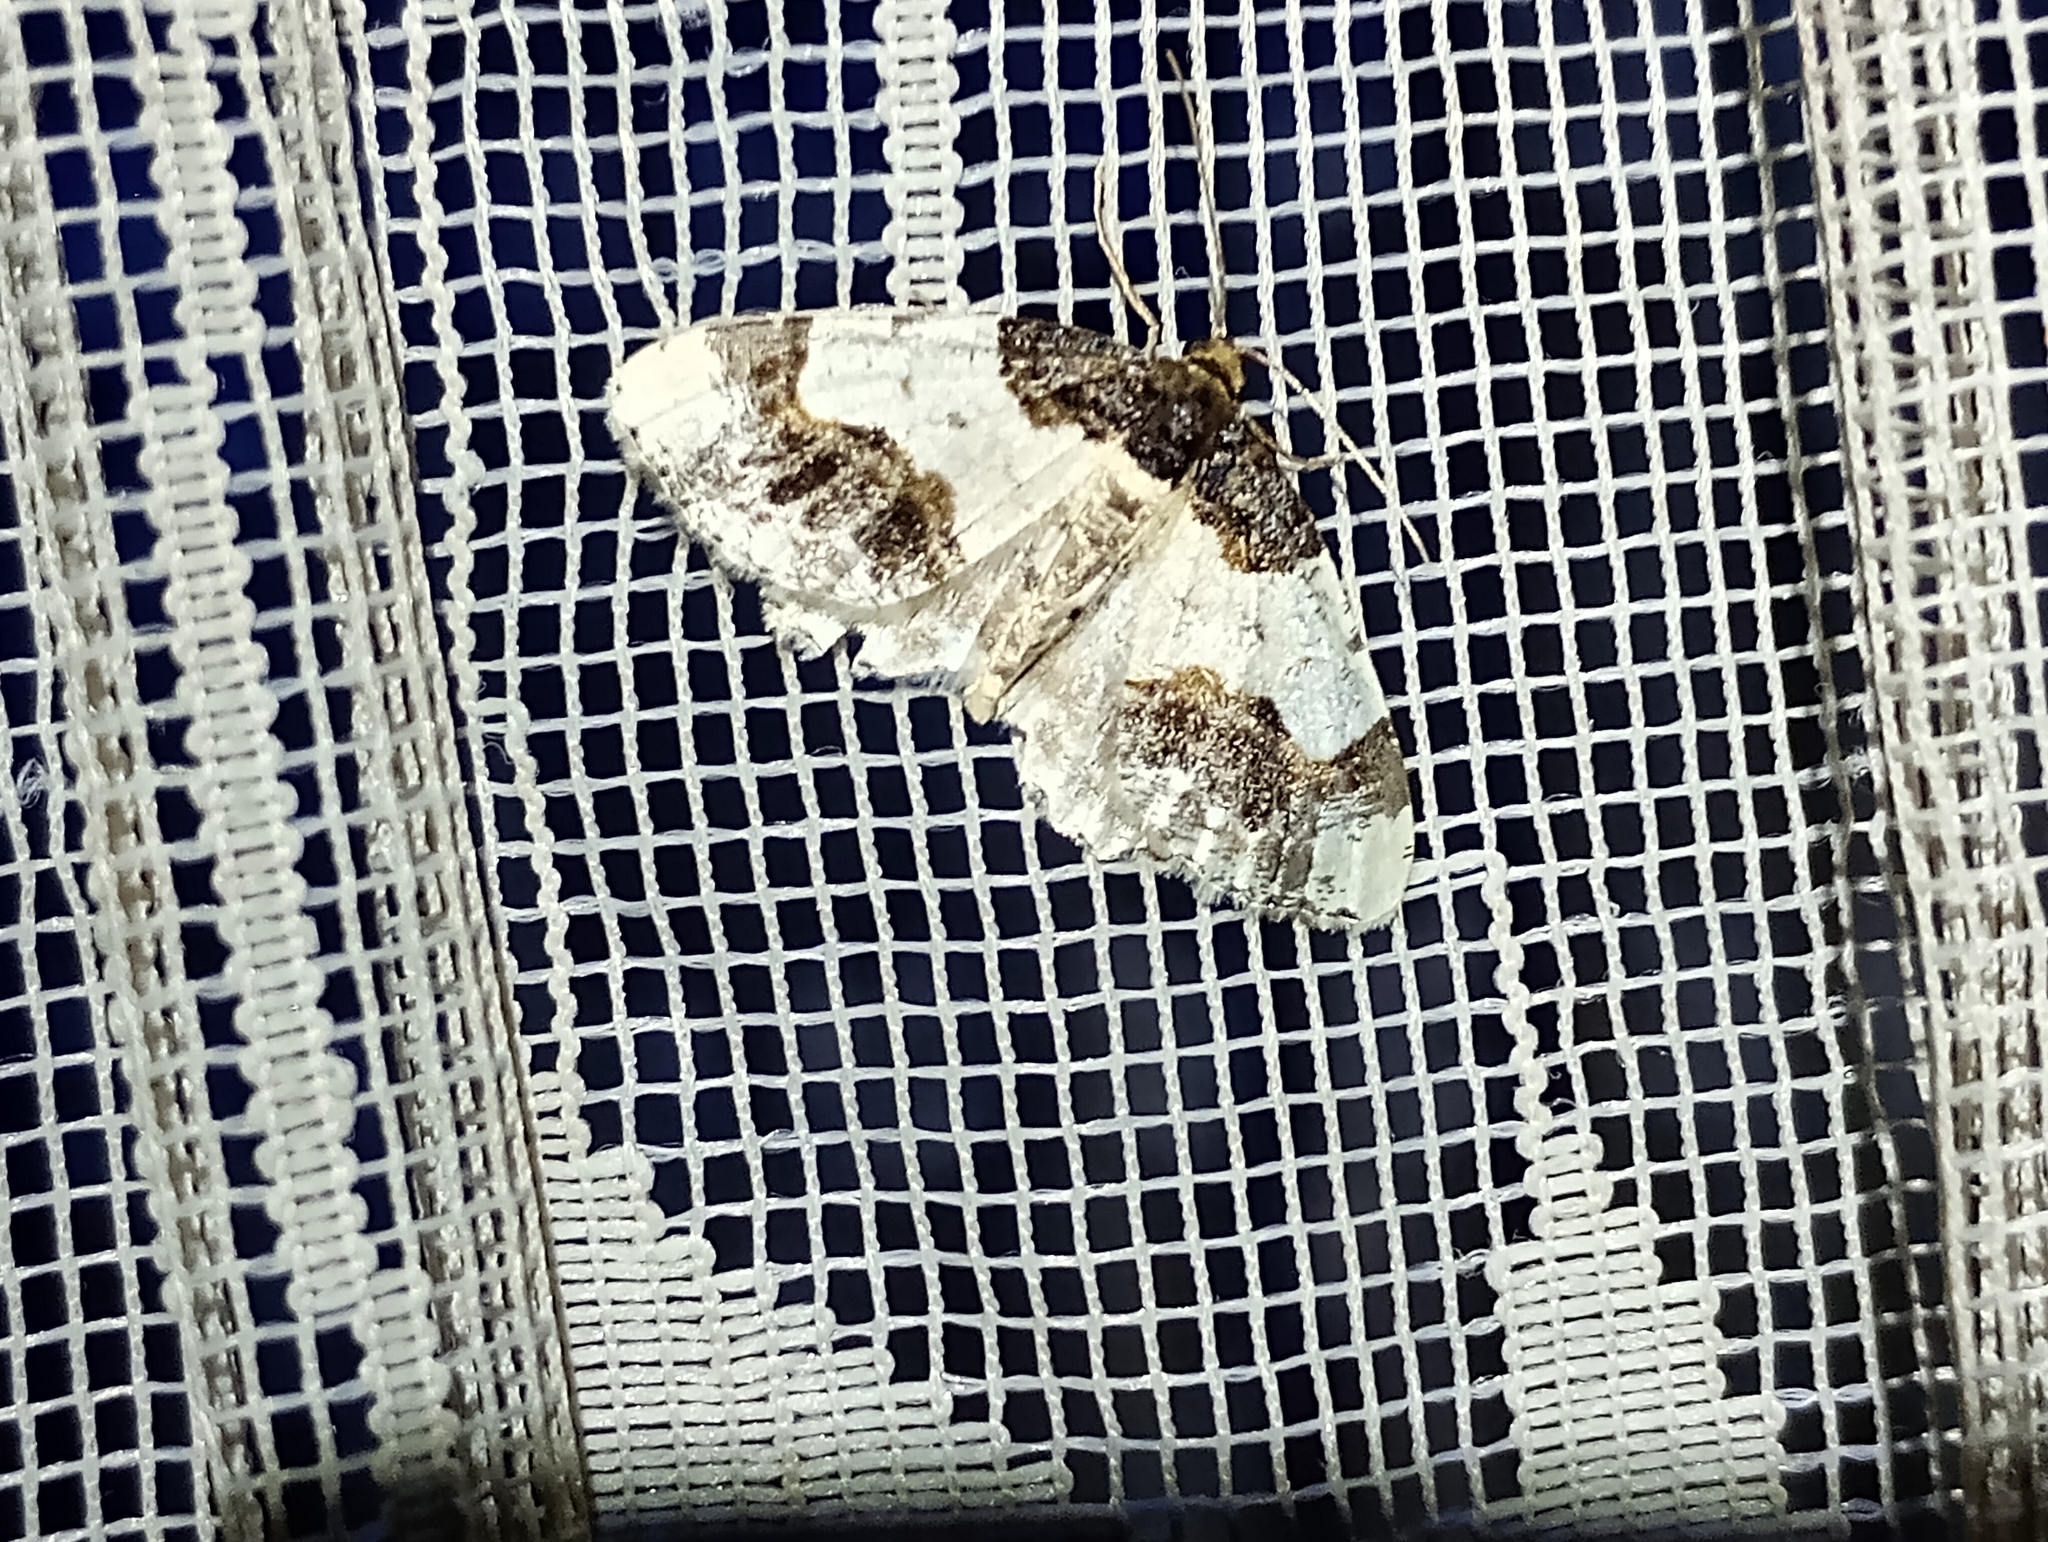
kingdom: Animalia
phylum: Arthropoda
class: Insecta
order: Lepidoptera
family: Geometridae
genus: Ligdia
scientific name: Ligdia adustata
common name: Scorched carpet
